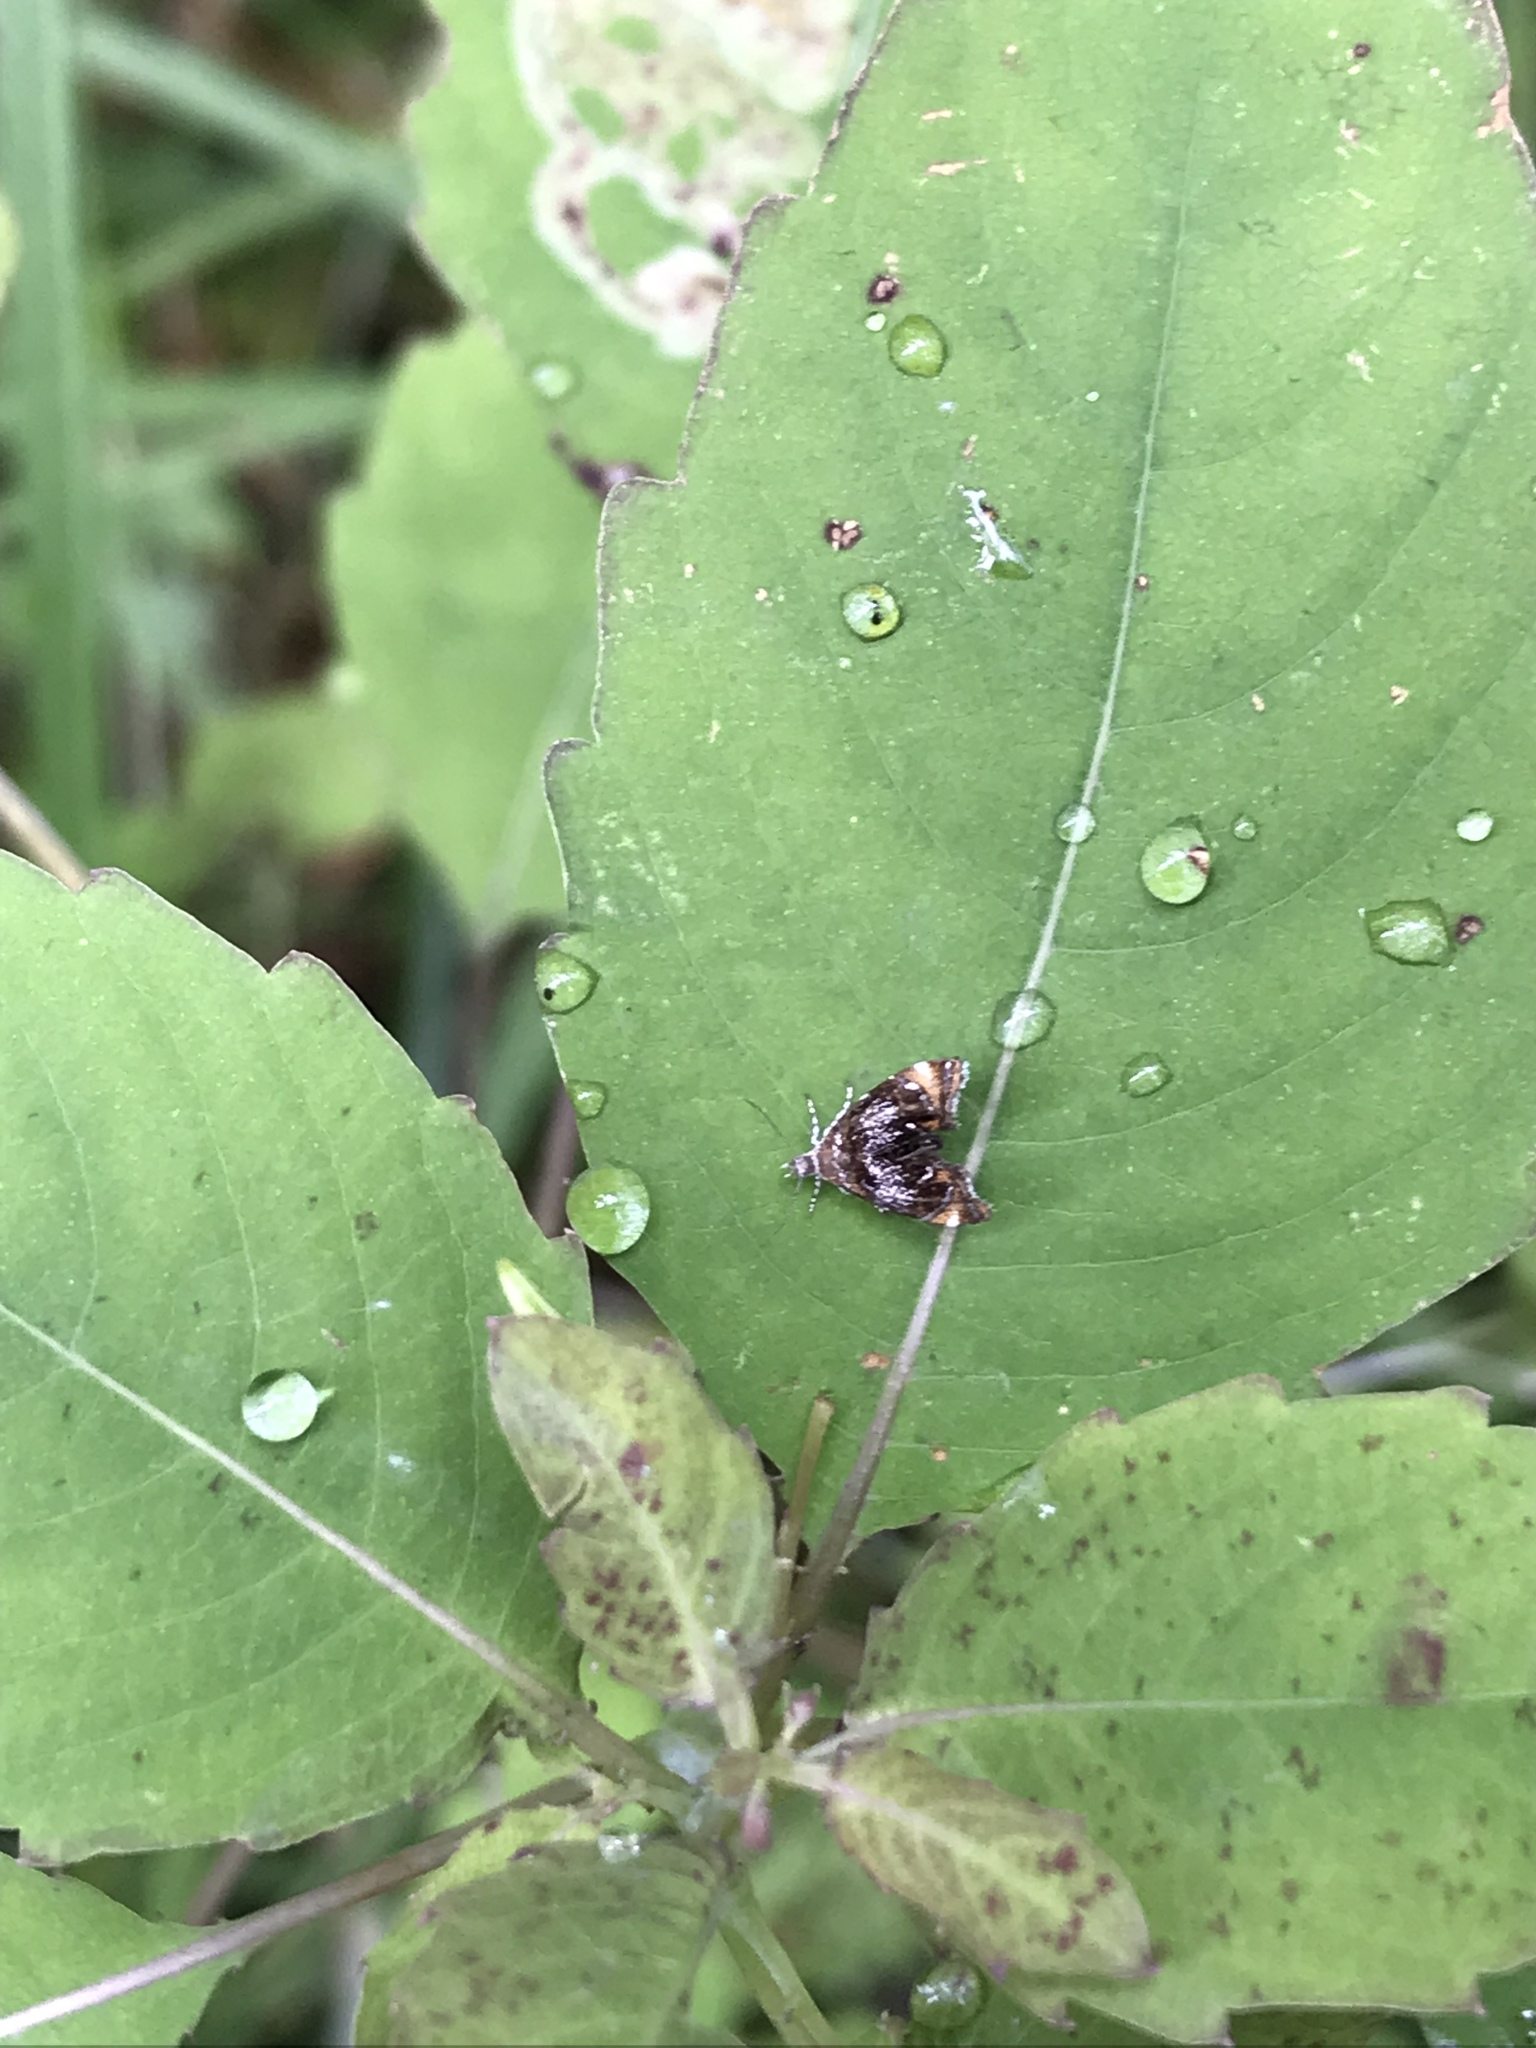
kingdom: Animalia
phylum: Arthropoda
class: Insecta
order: Lepidoptera
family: Choreutidae
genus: Prochoreutis
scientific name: Prochoreutis inflatella
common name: Skullcap skeletonizer moth
